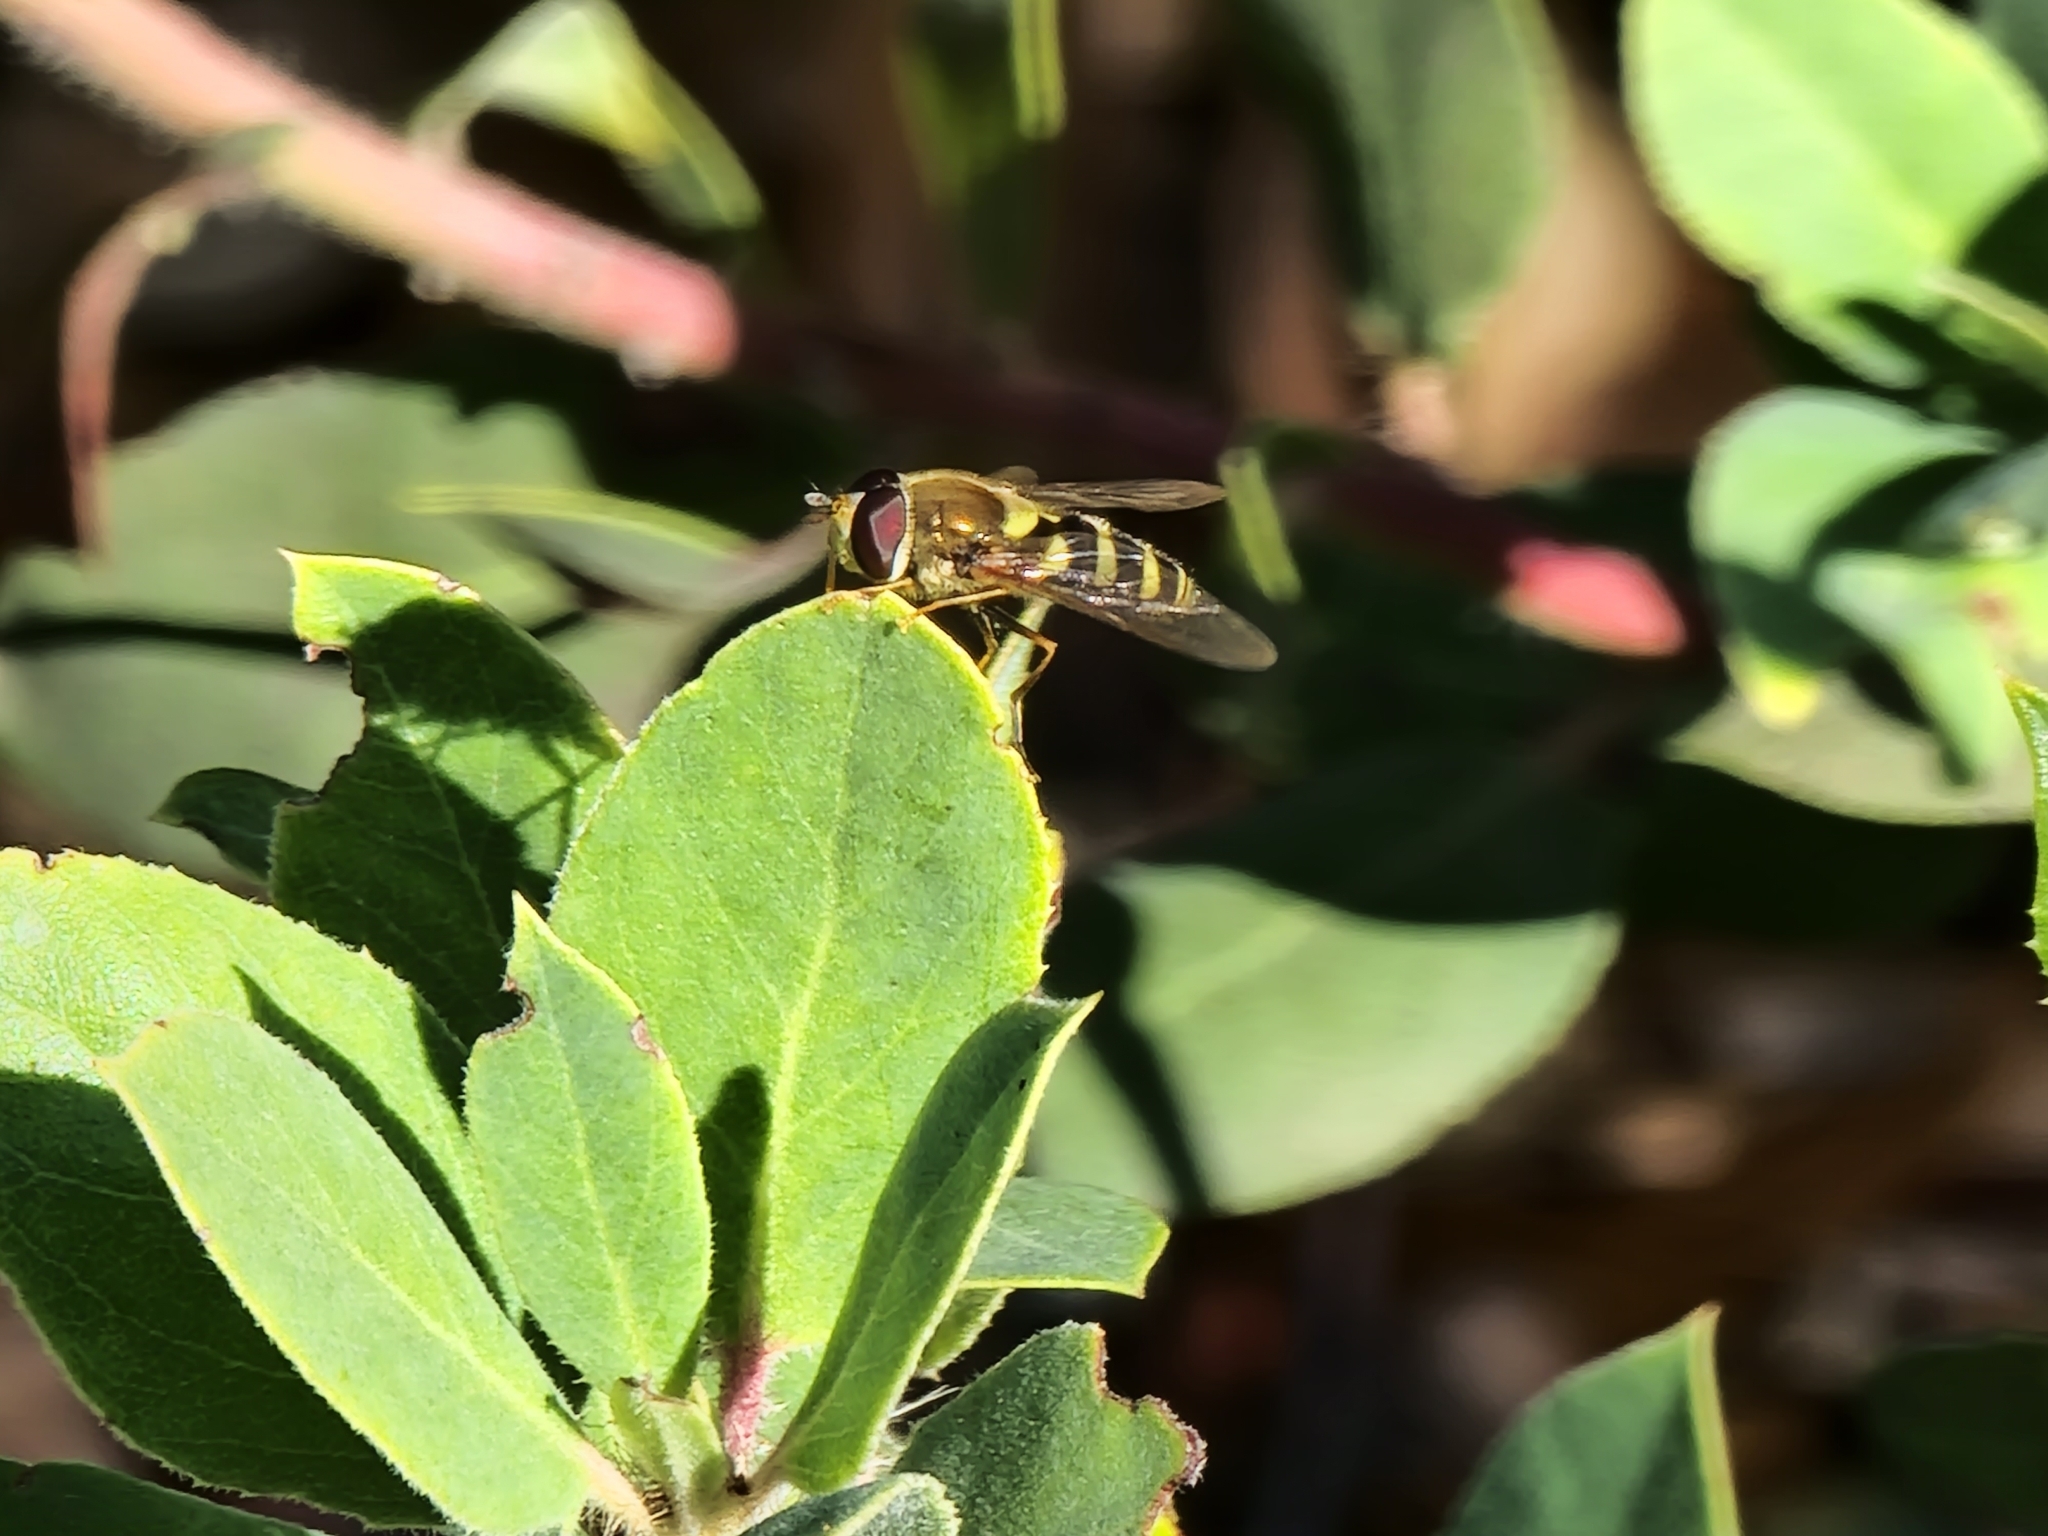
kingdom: Animalia
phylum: Arthropoda
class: Insecta
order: Diptera
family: Syrphidae
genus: Syrphus
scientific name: Syrphus opinator
